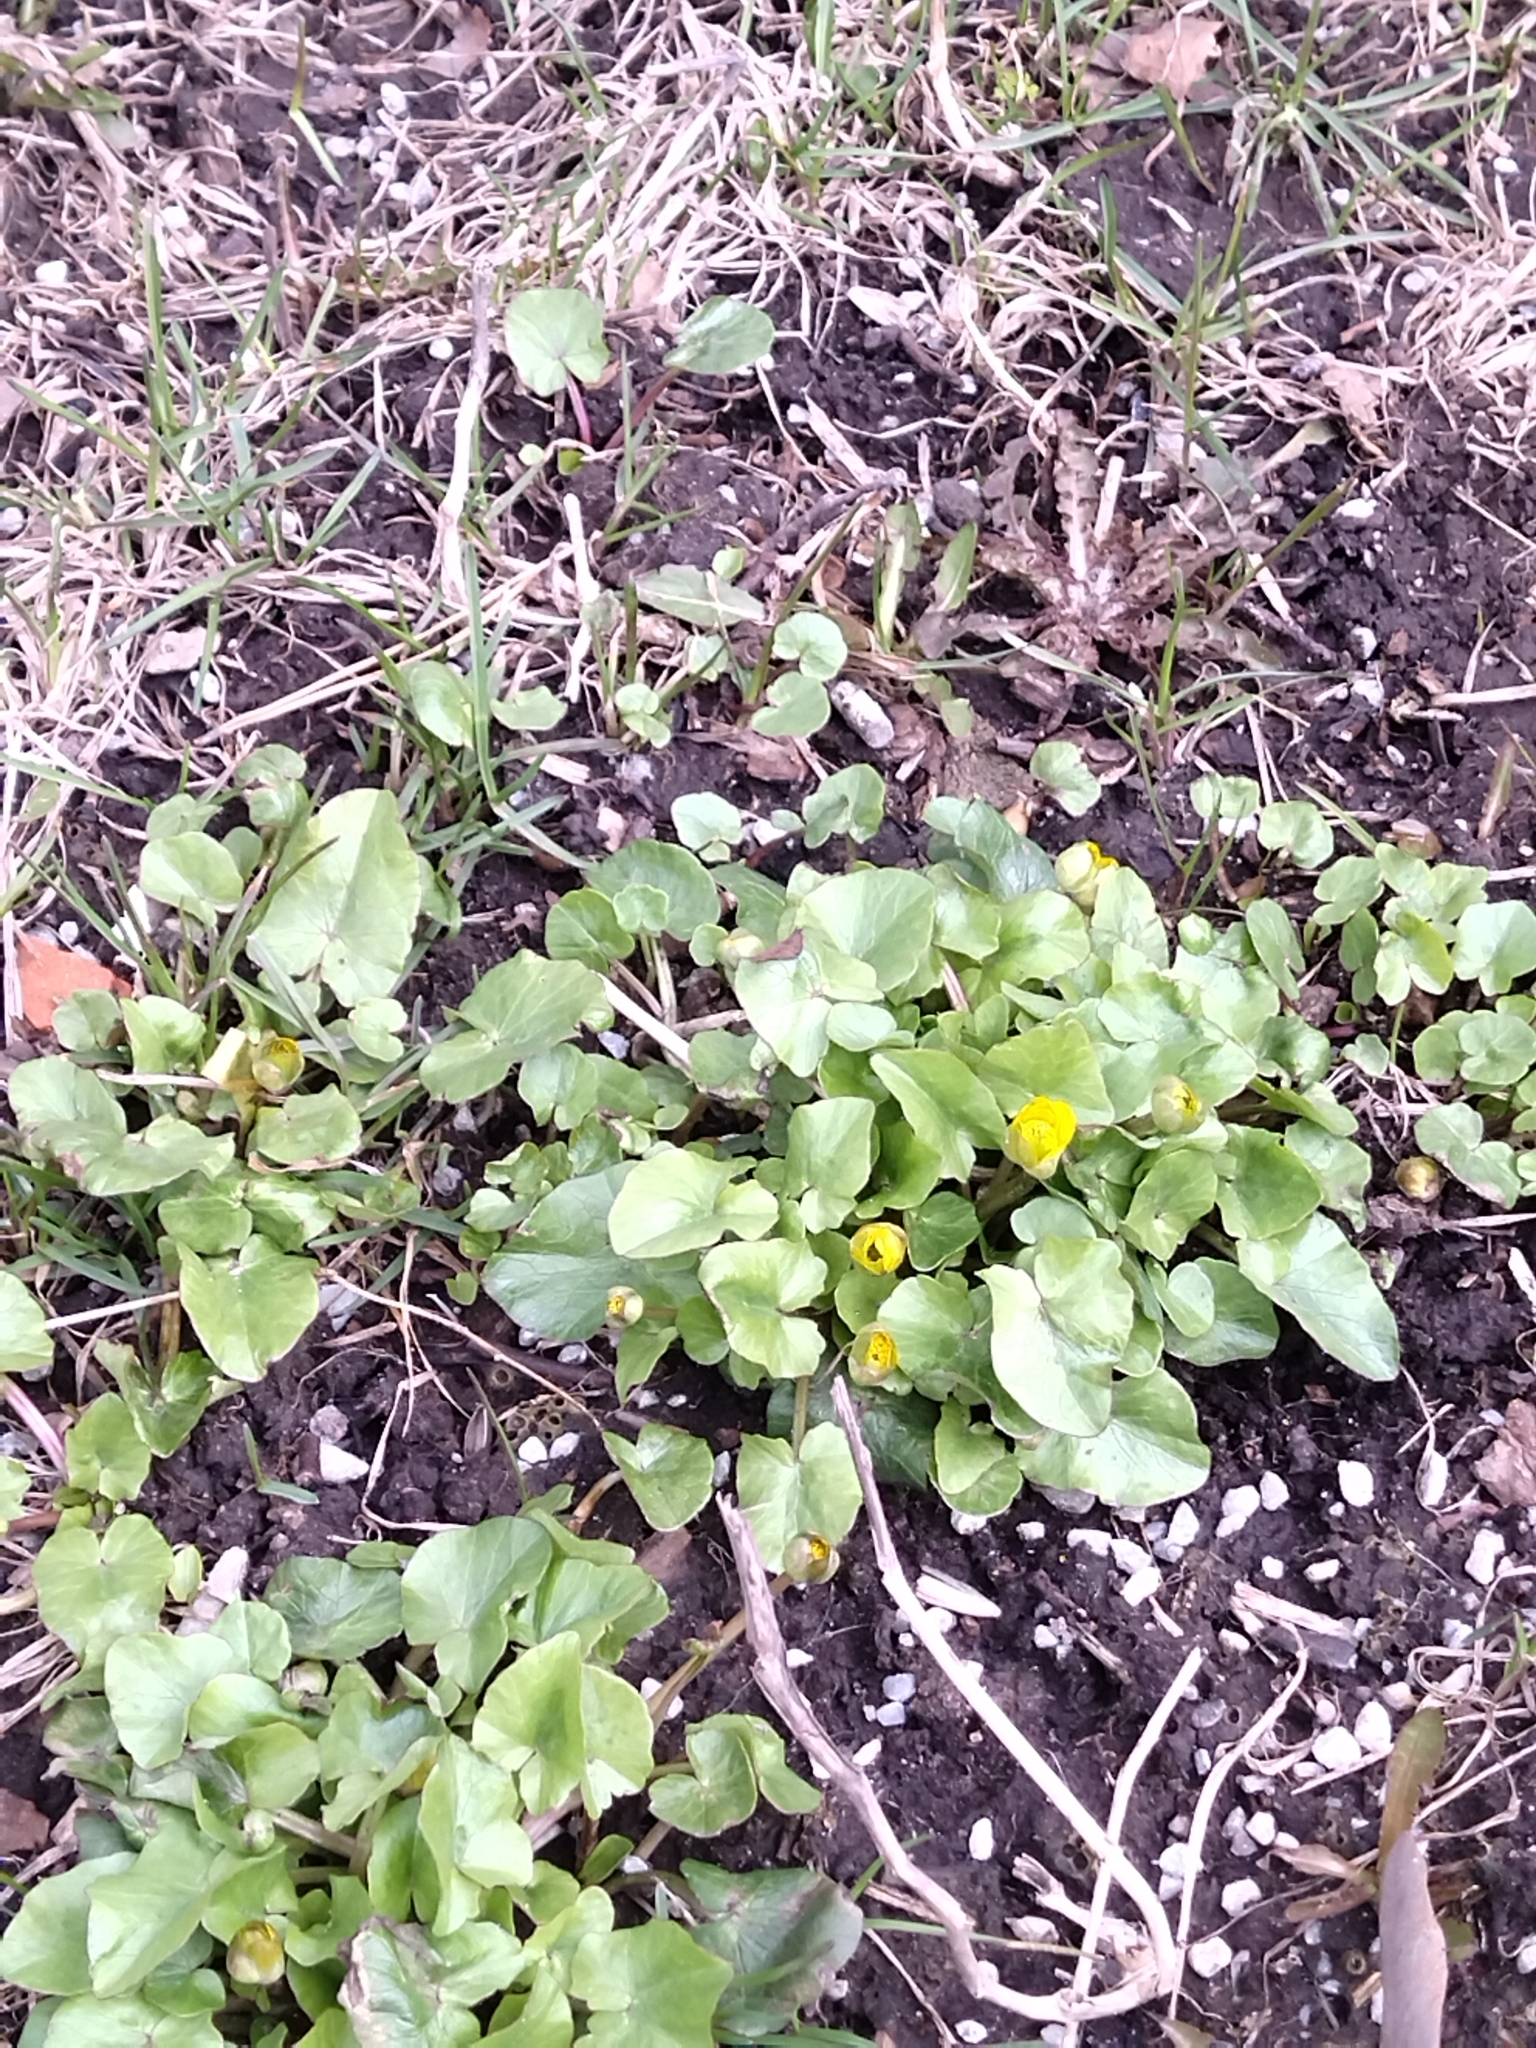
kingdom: Plantae
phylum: Tracheophyta
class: Magnoliopsida
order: Ranunculales
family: Ranunculaceae
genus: Ficaria
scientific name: Ficaria verna
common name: Lesser celandine
